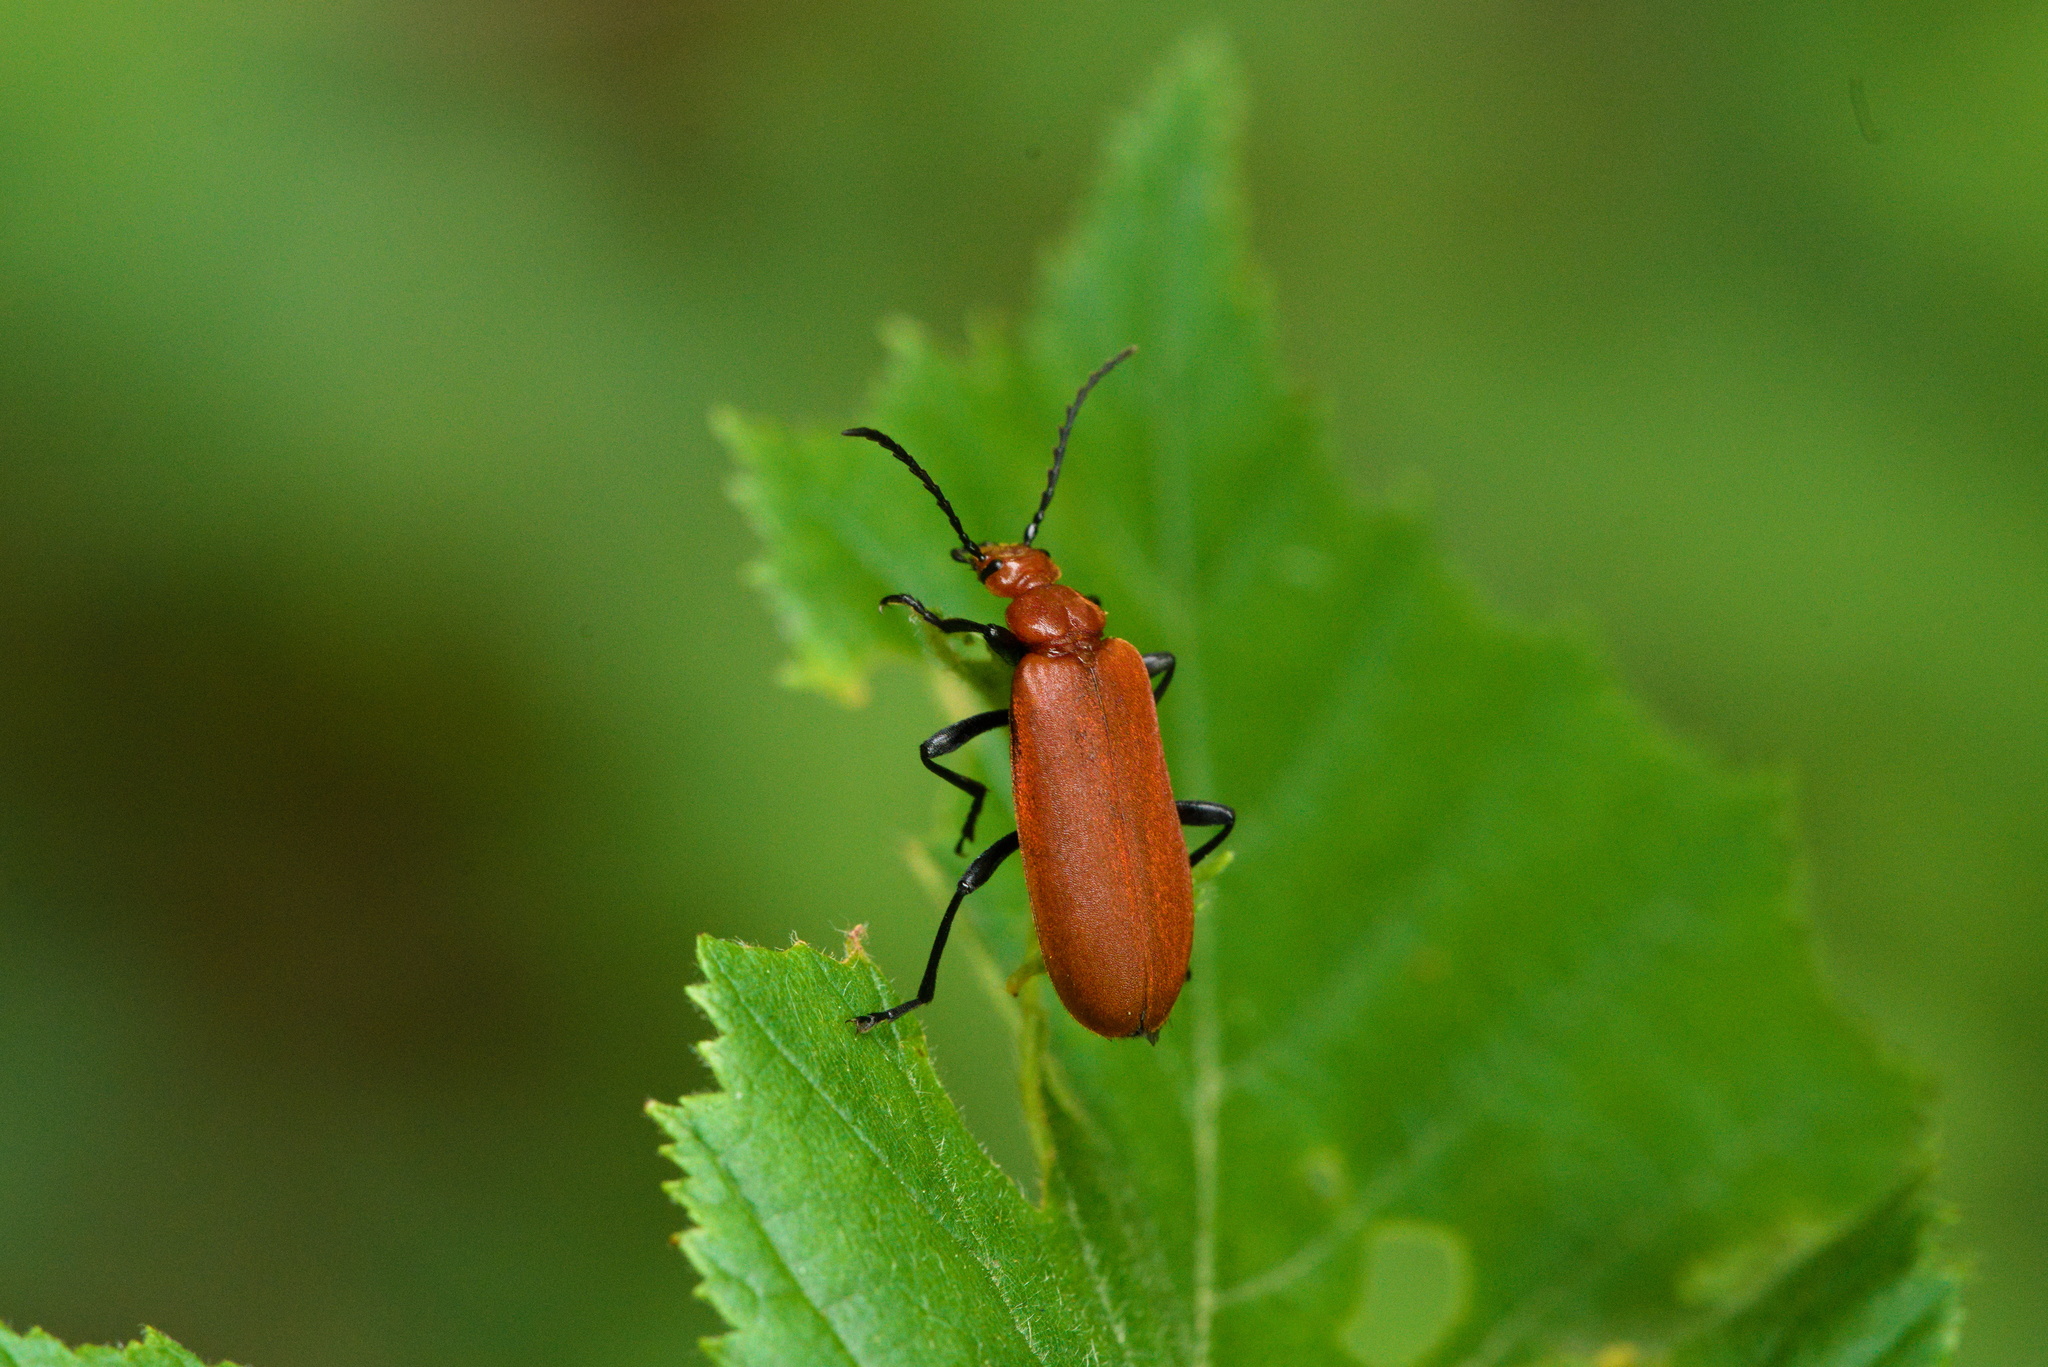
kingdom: Animalia
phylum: Arthropoda
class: Insecta
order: Coleoptera
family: Pyrochroidae
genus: Pyrochroa
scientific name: Pyrochroa serraticornis
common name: Red-headed cardinal beetle
